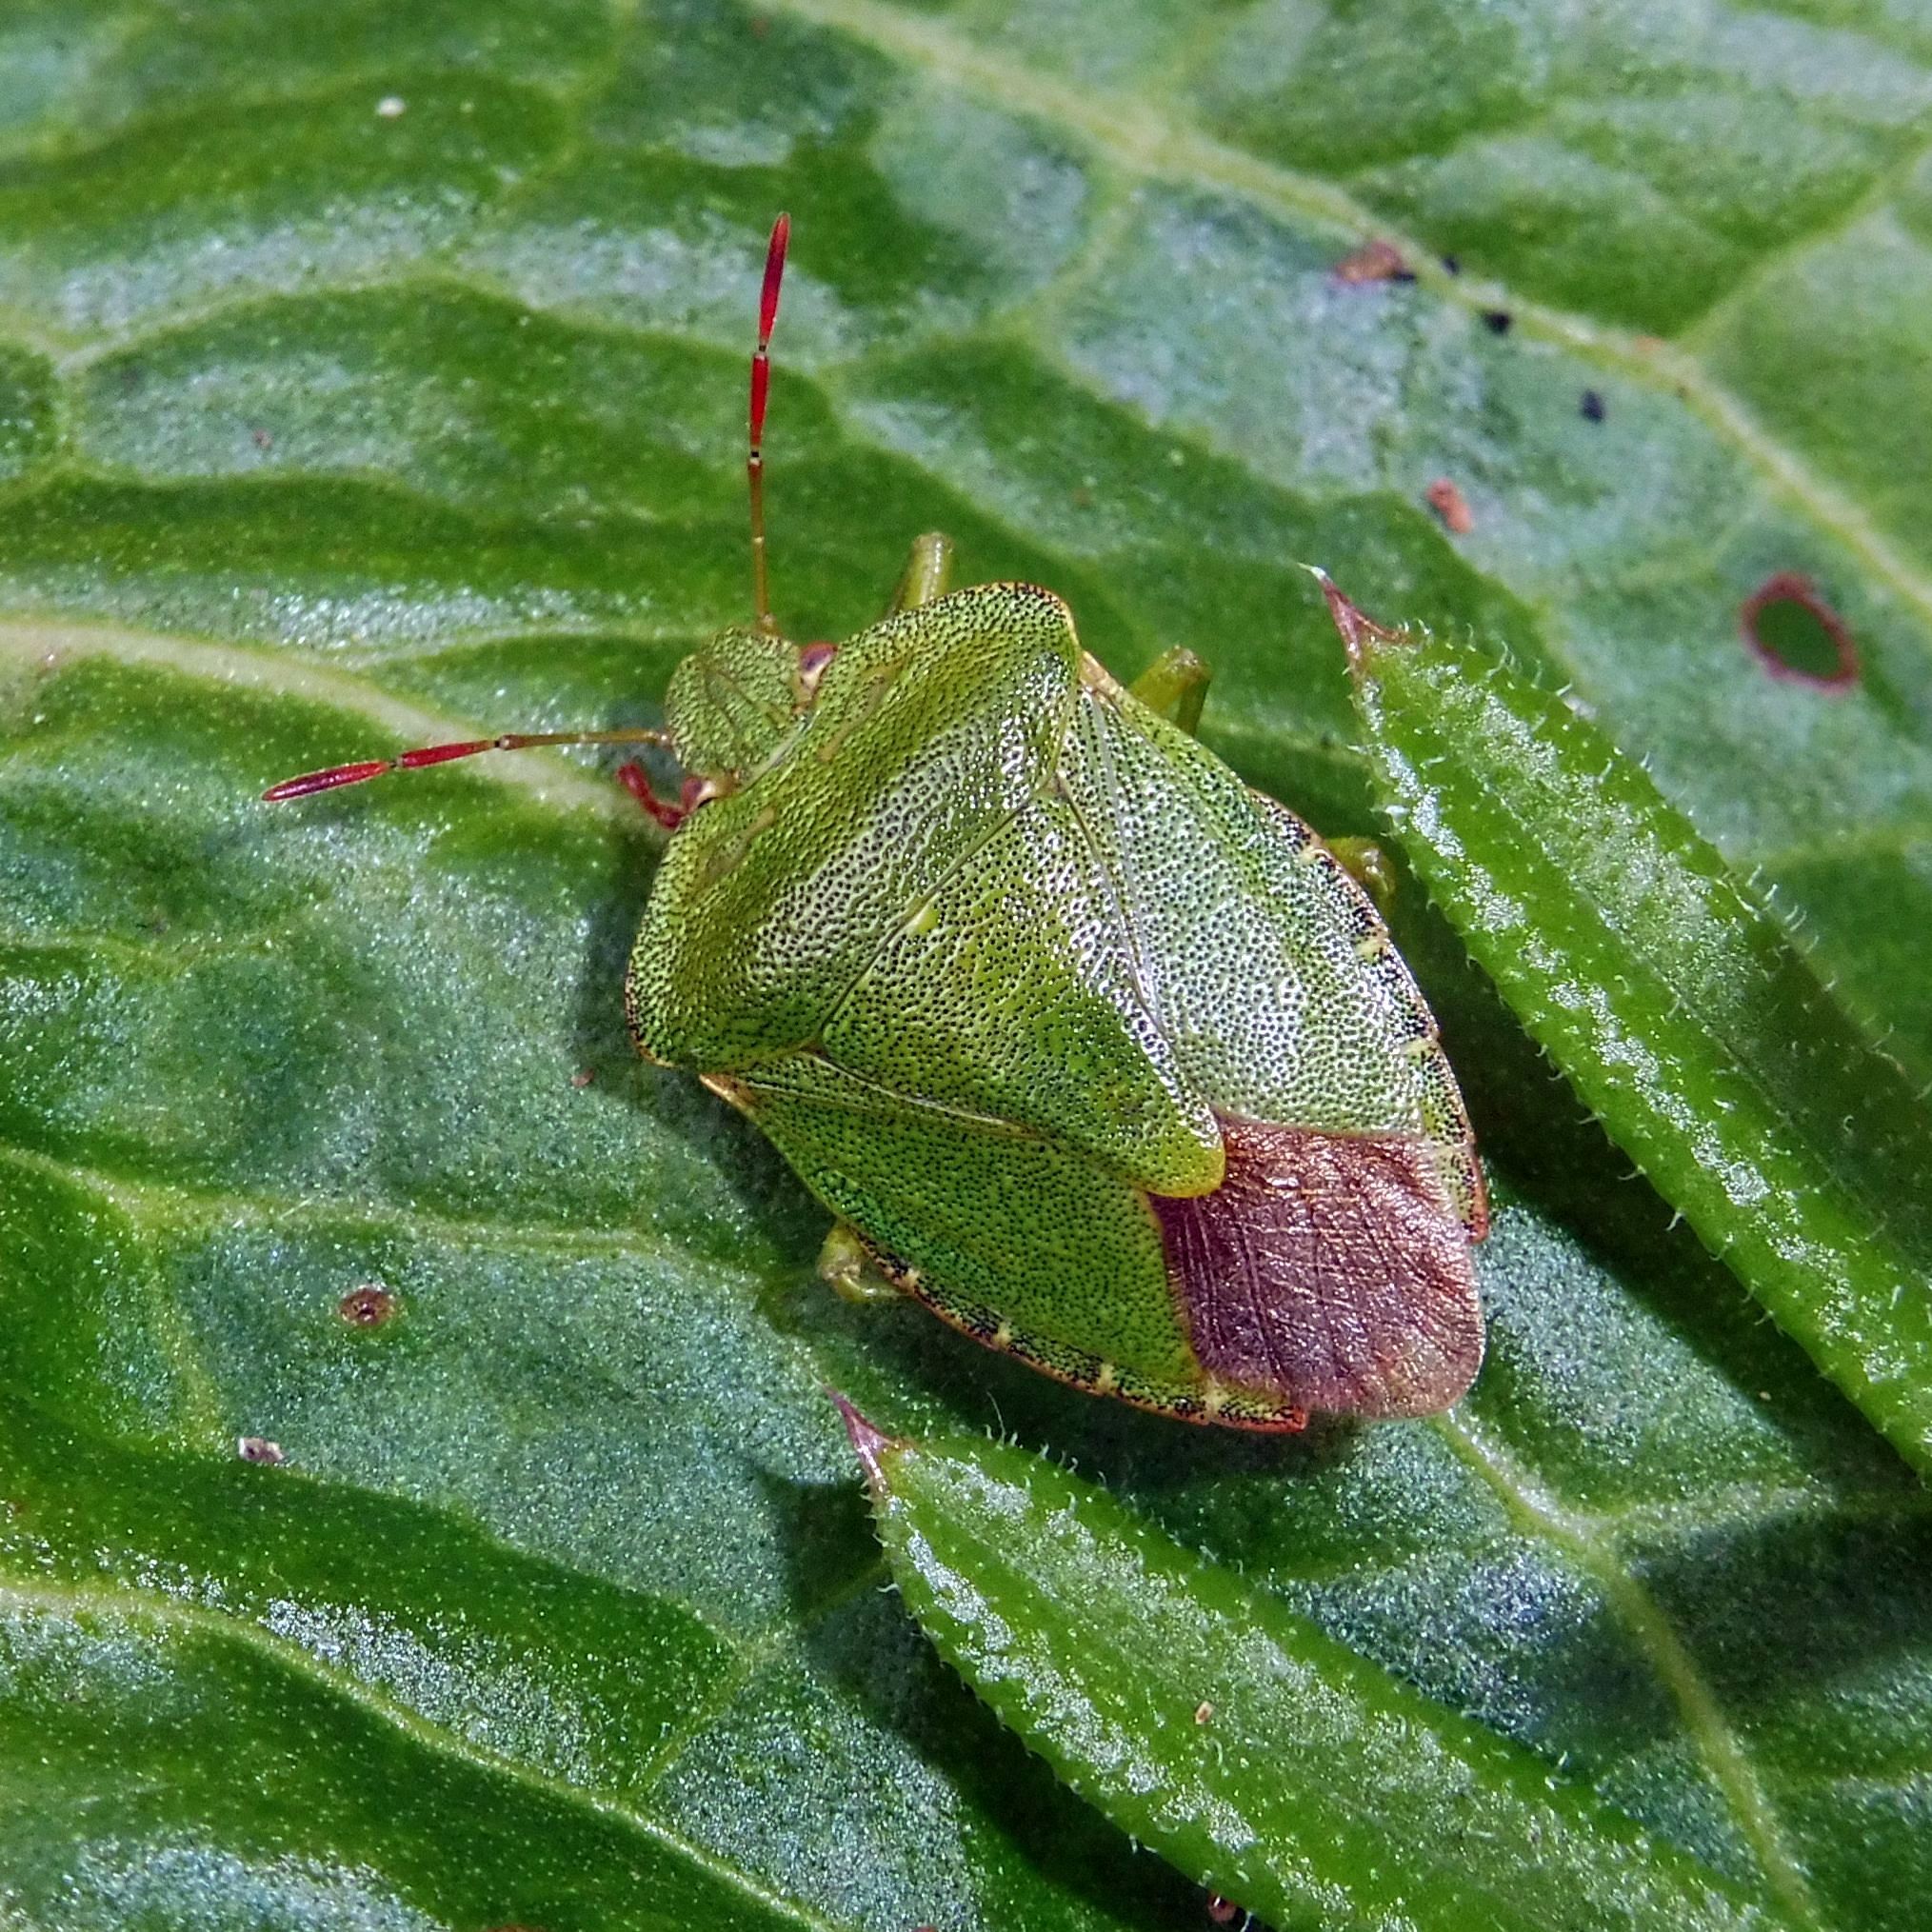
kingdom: Animalia
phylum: Arthropoda
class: Insecta
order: Hemiptera
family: Pentatomidae
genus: Palomena
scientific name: Palomena prasina
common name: Green shieldbug
